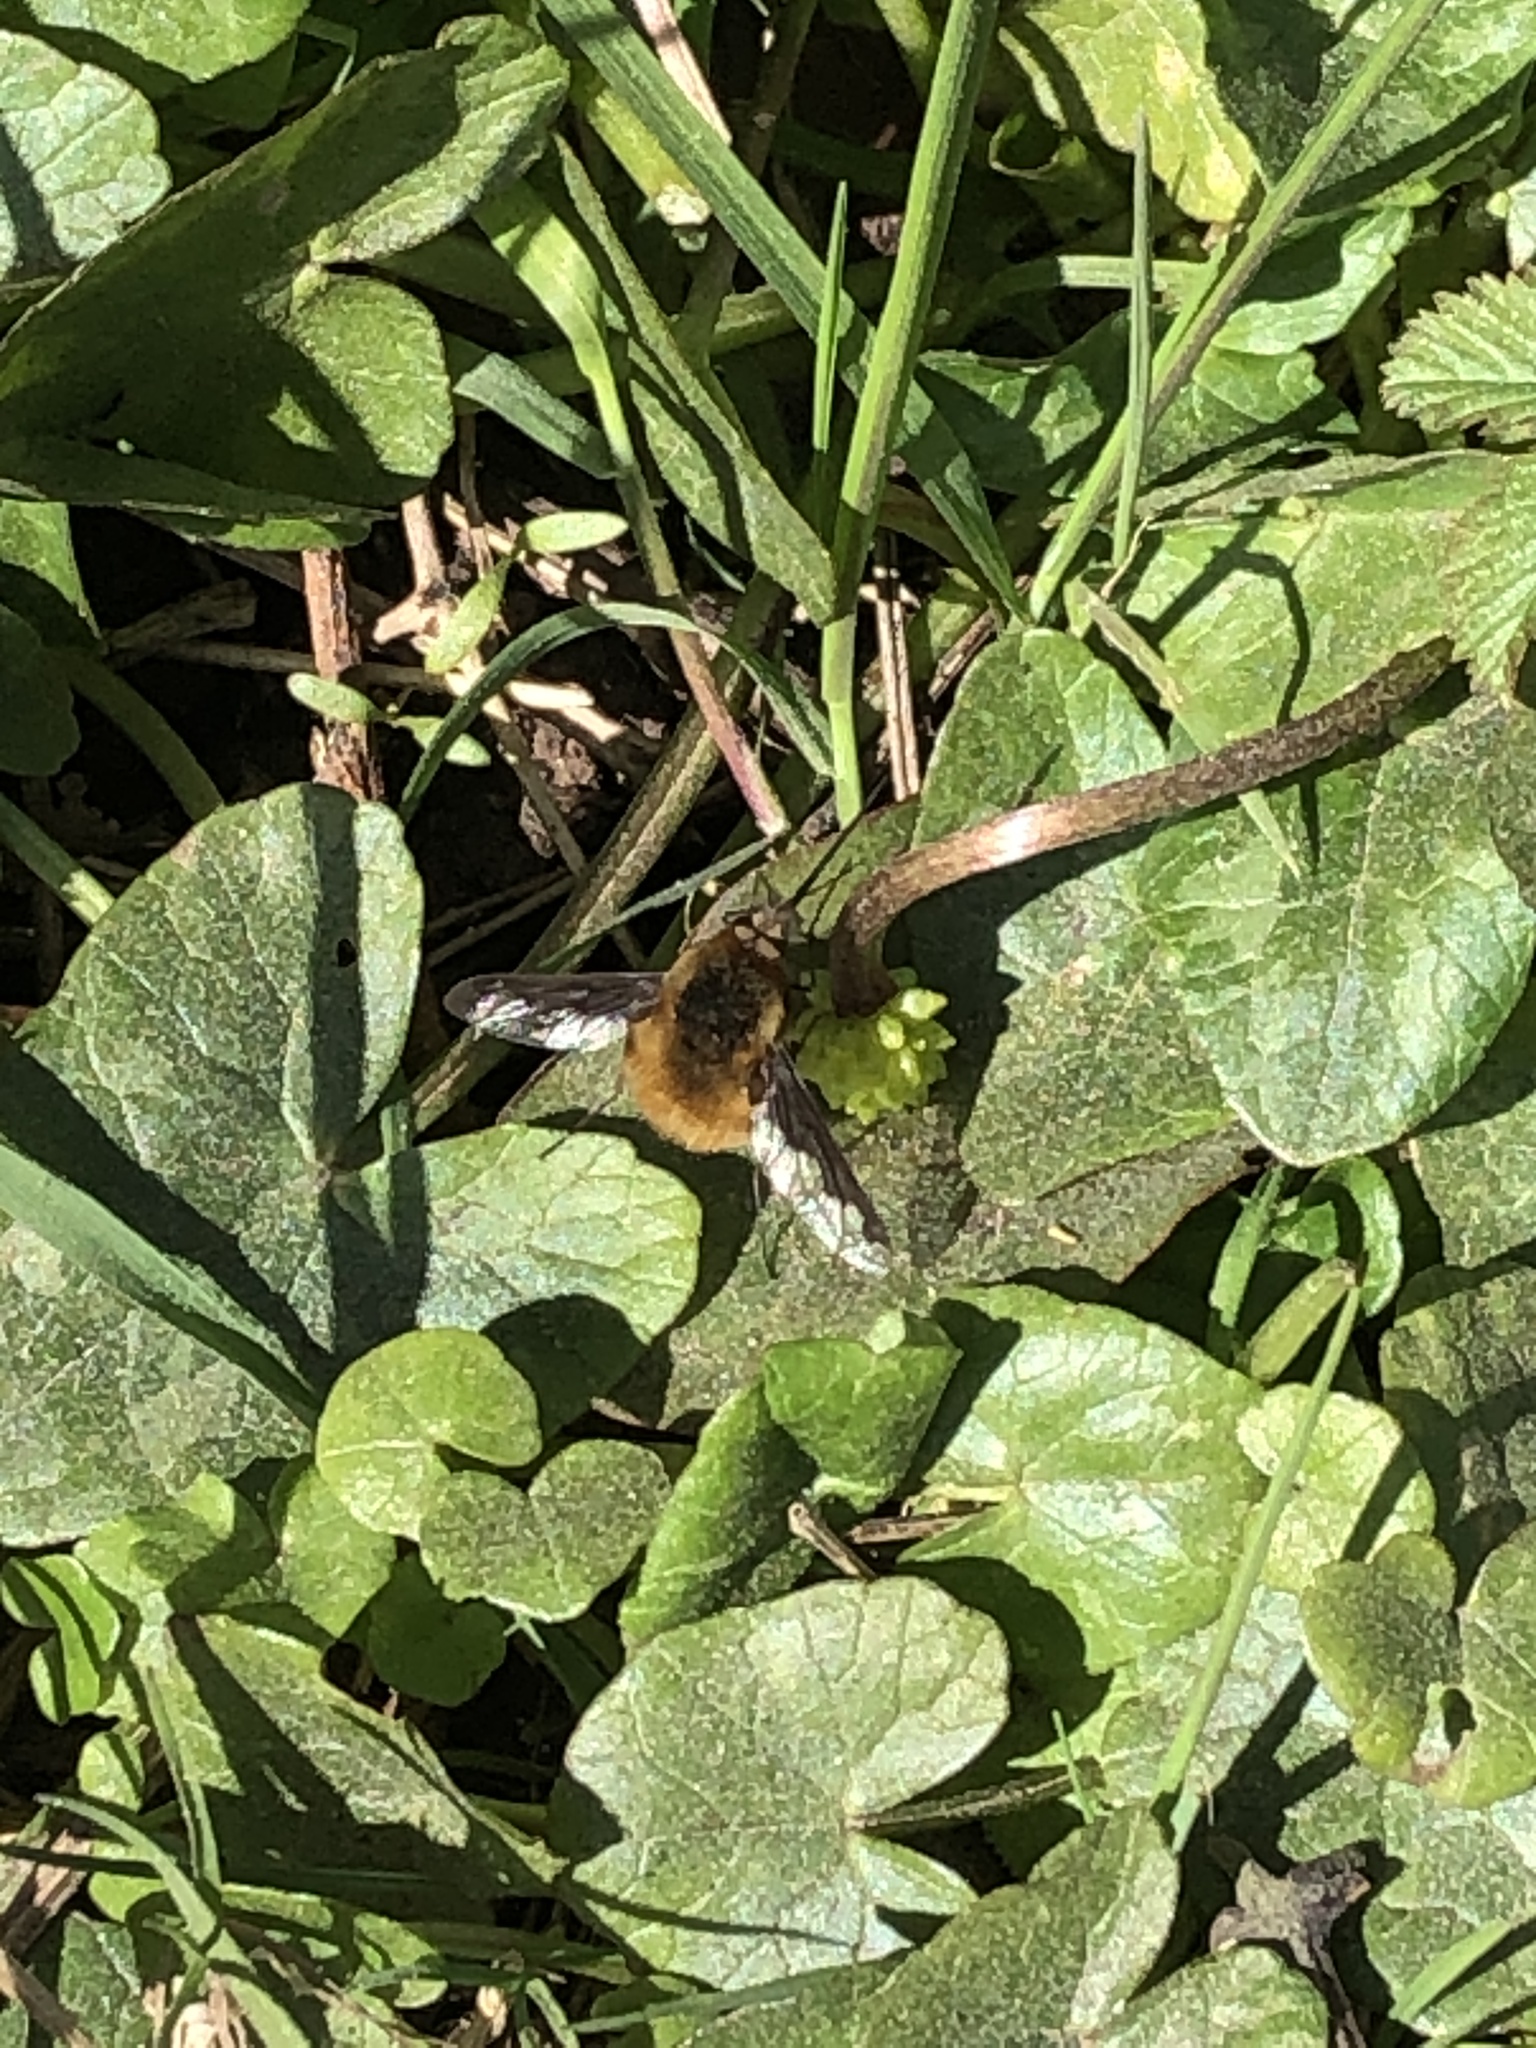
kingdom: Animalia
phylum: Arthropoda
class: Insecta
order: Diptera
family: Bombyliidae
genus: Bombylius
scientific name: Bombylius major
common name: Bee fly
